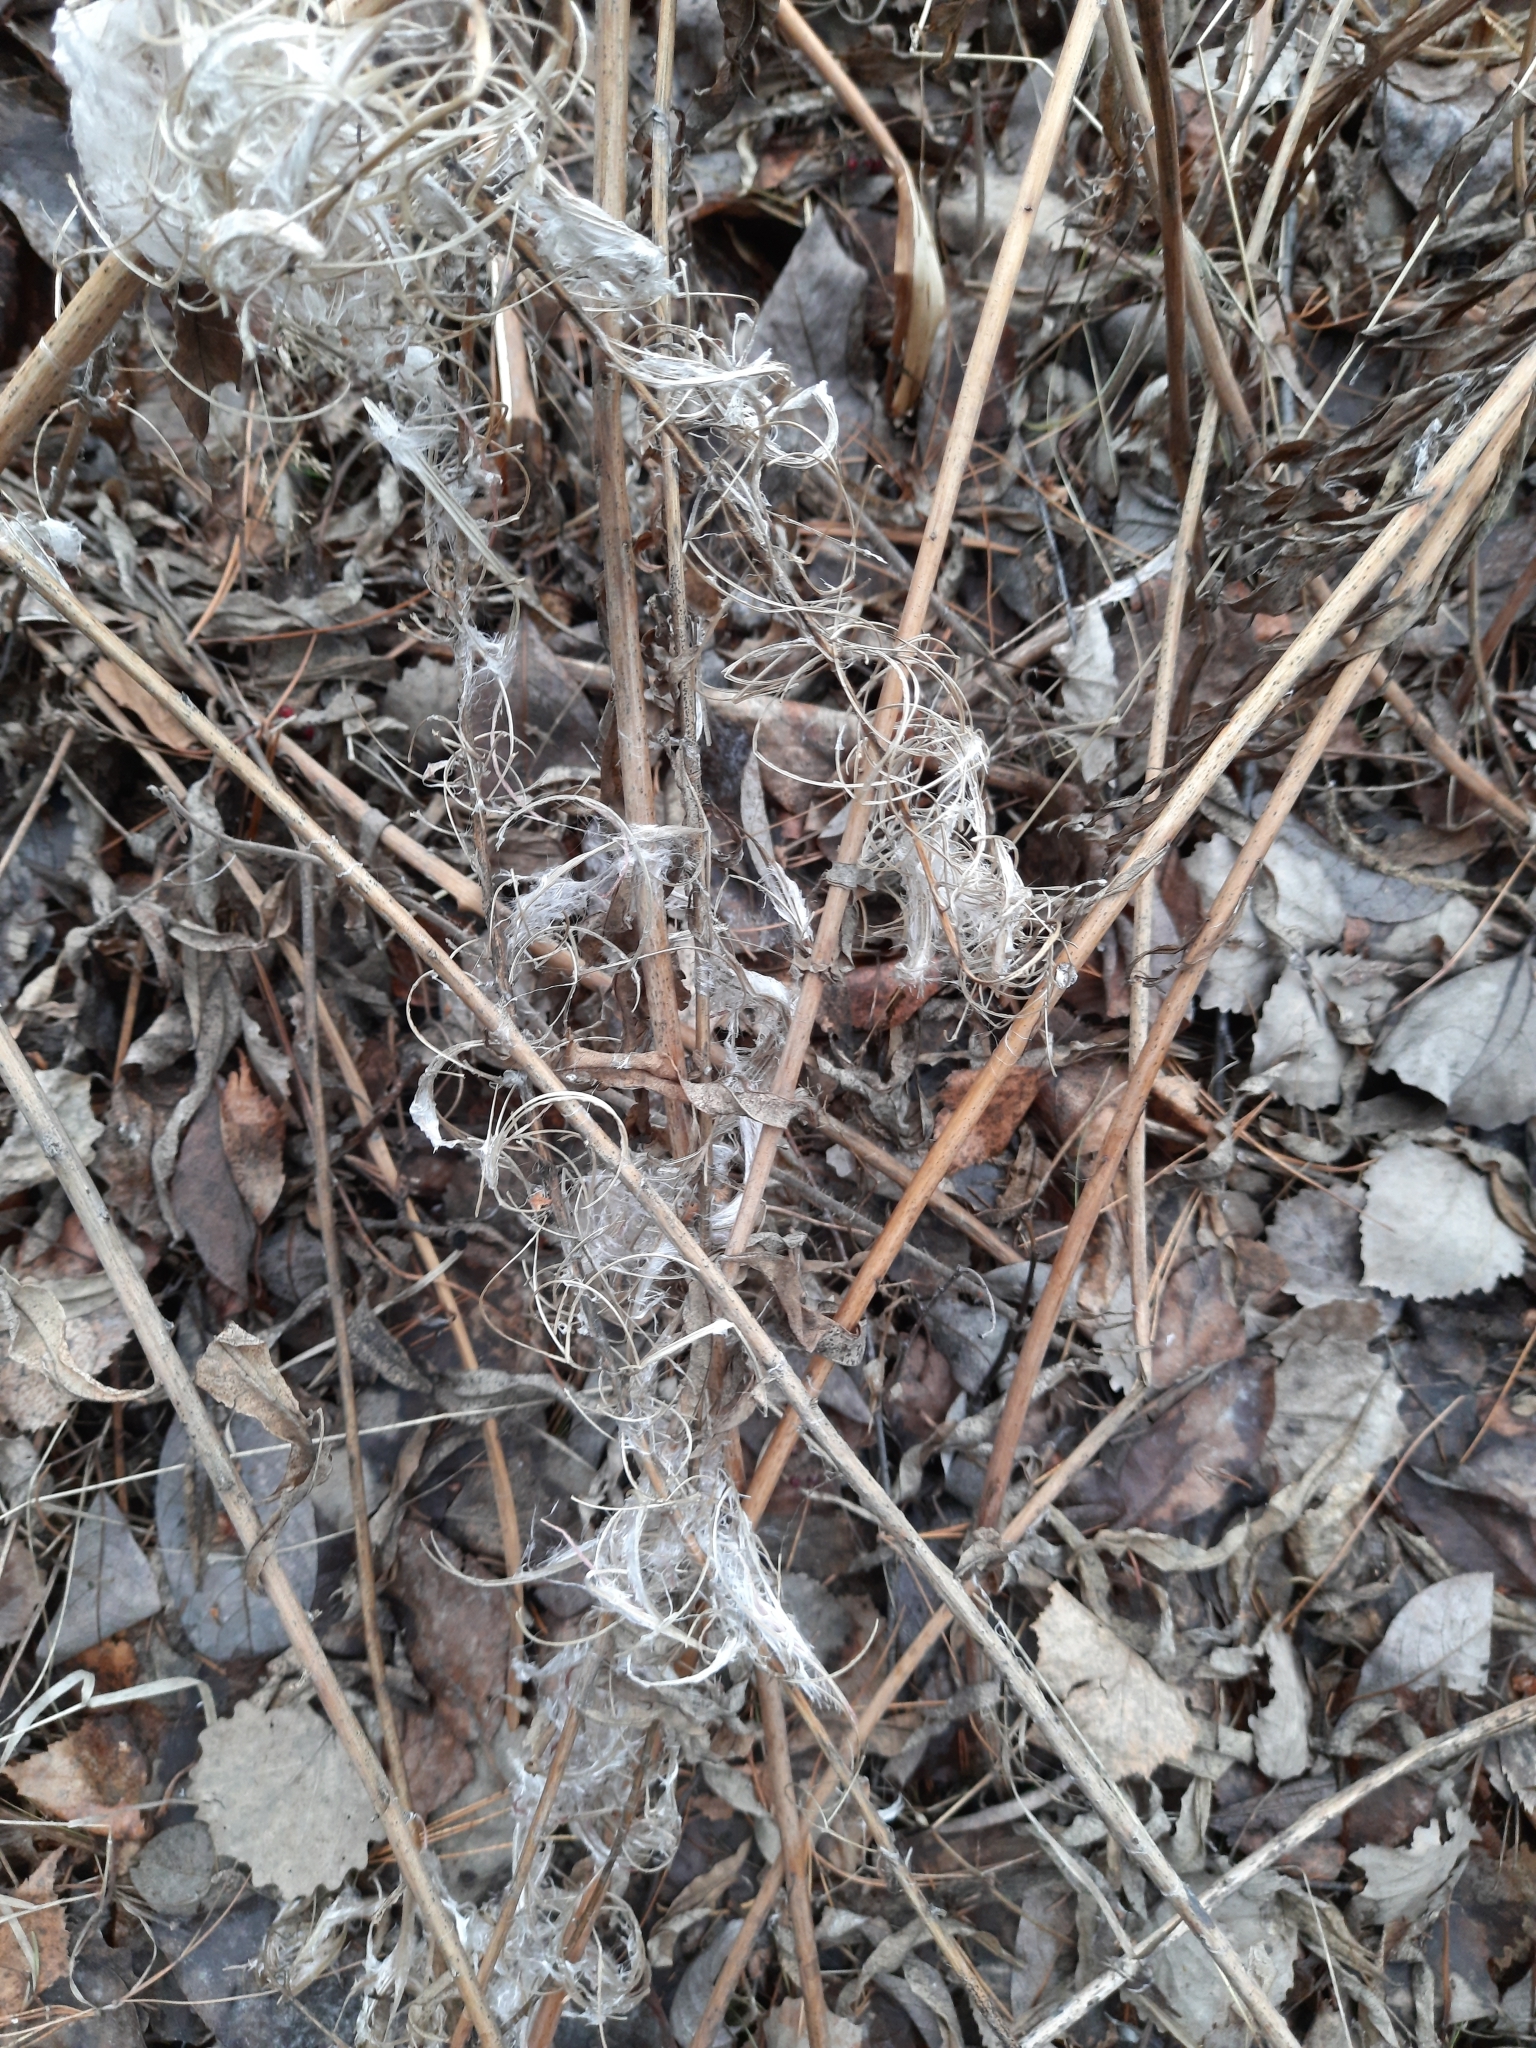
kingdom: Plantae
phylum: Tracheophyta
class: Magnoliopsida
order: Myrtales
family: Onagraceae
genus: Chamaenerion
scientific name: Chamaenerion angustifolium
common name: Fireweed
